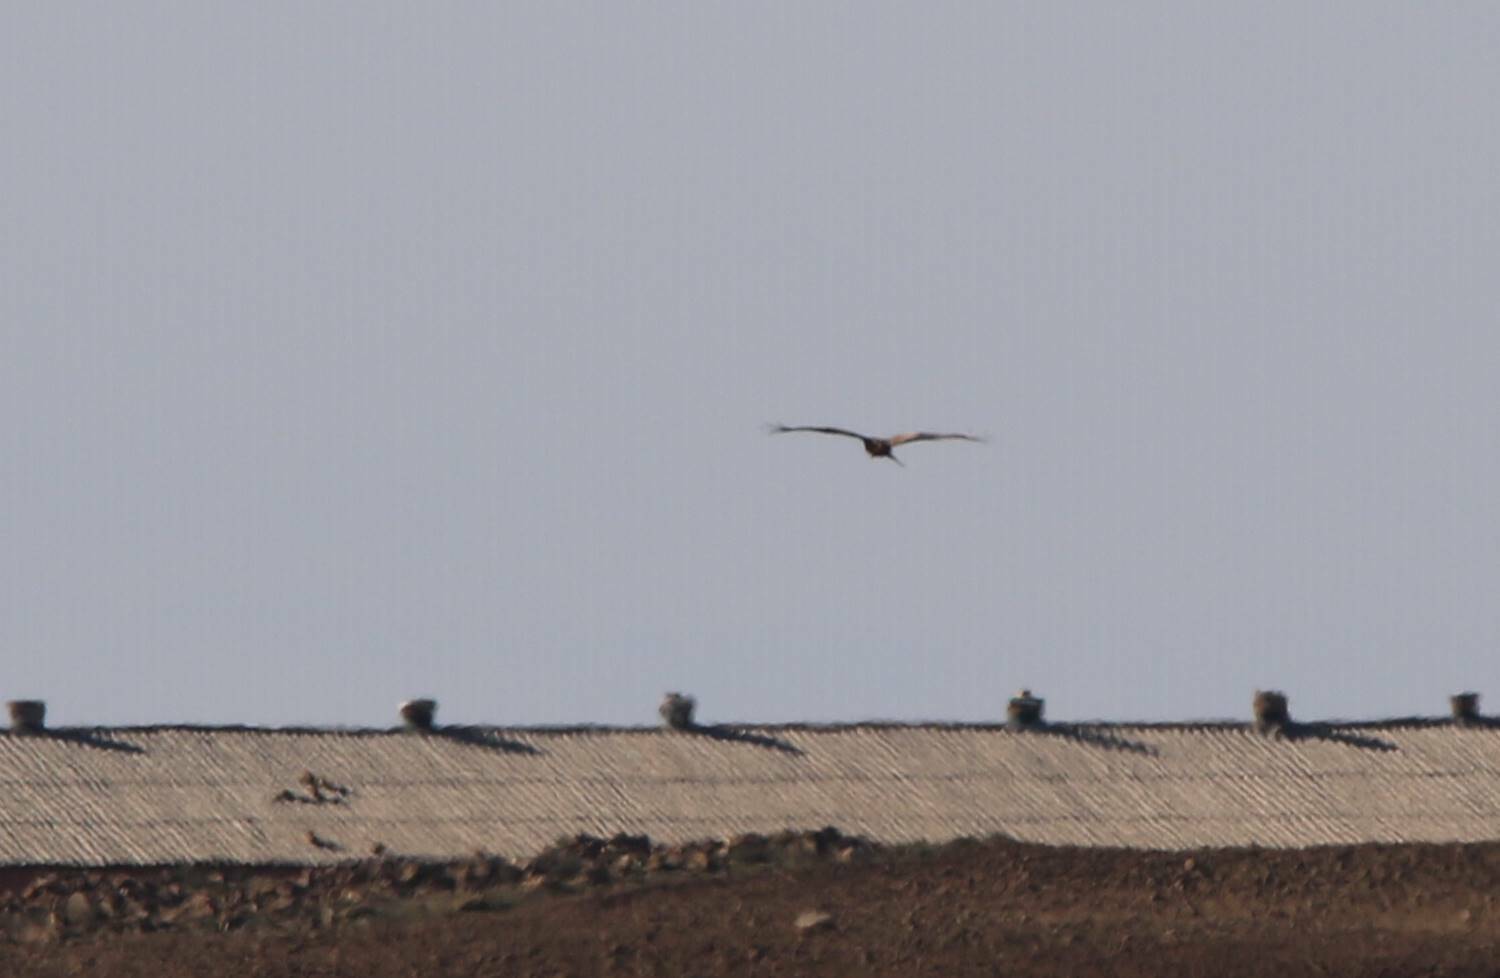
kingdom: Animalia
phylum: Chordata
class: Aves
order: Accipitriformes
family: Accipitridae
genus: Circus
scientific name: Circus aeruginosus
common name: Western marsh harrier
